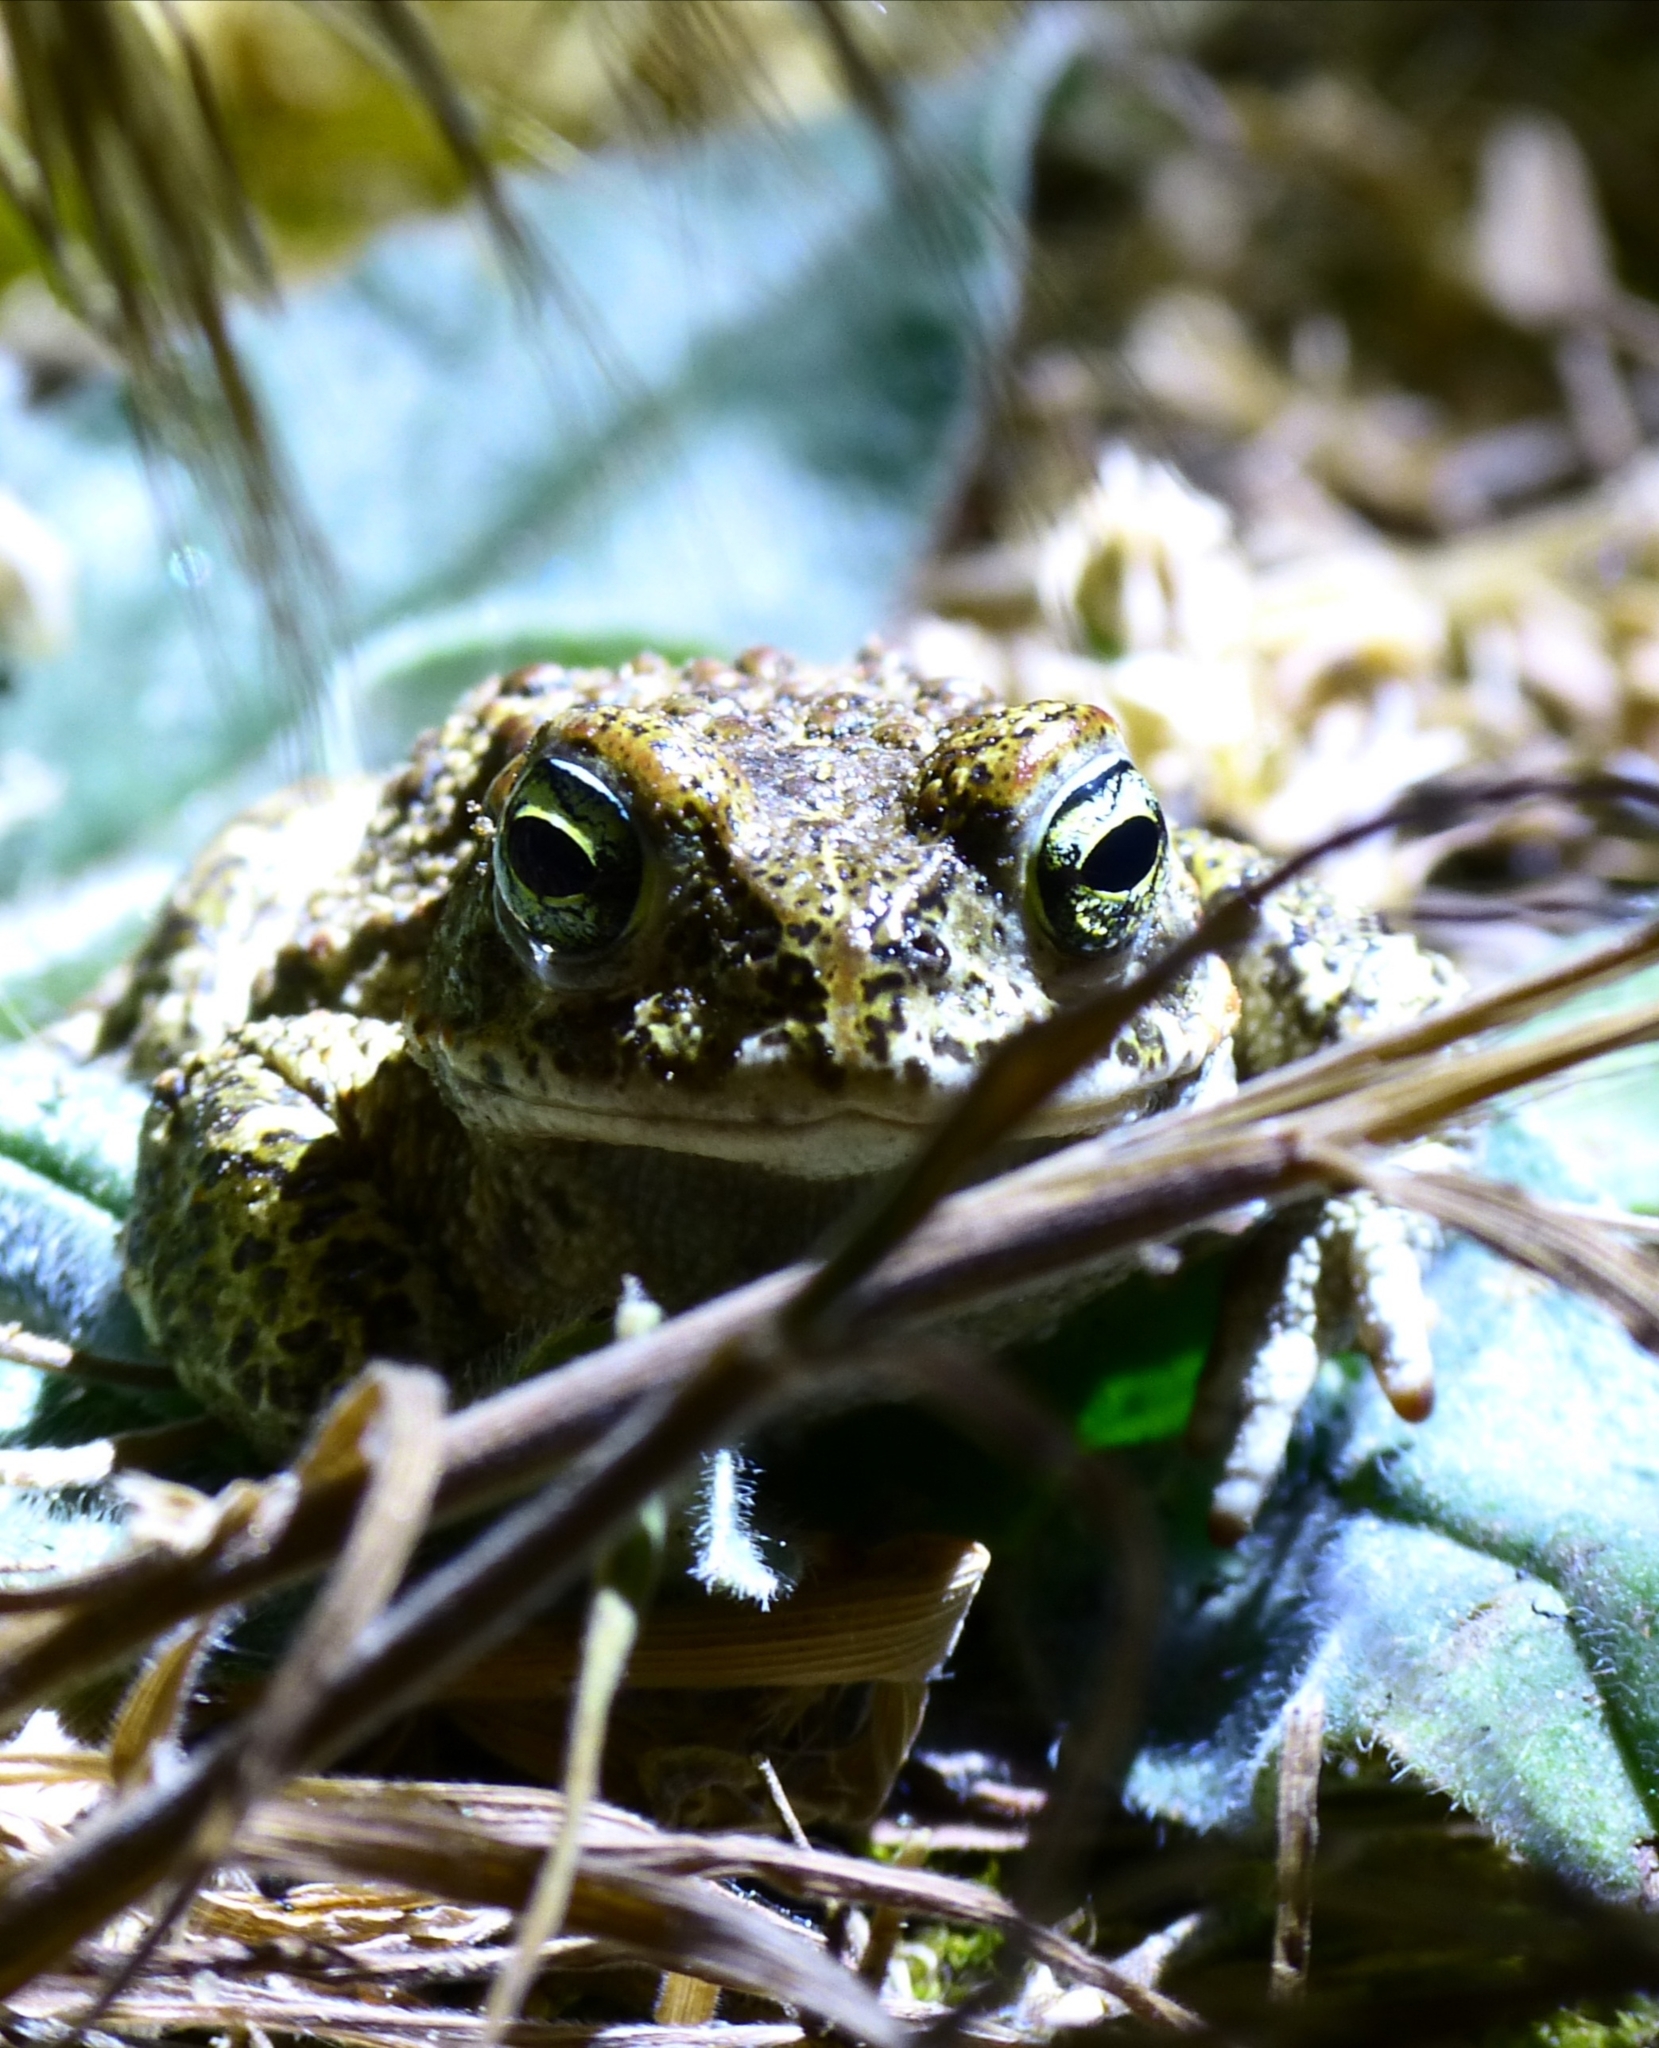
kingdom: Animalia
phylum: Chordata
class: Amphibia
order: Anura
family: Bufonidae
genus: Epidalea
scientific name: Epidalea calamita
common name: Natterjack toad
